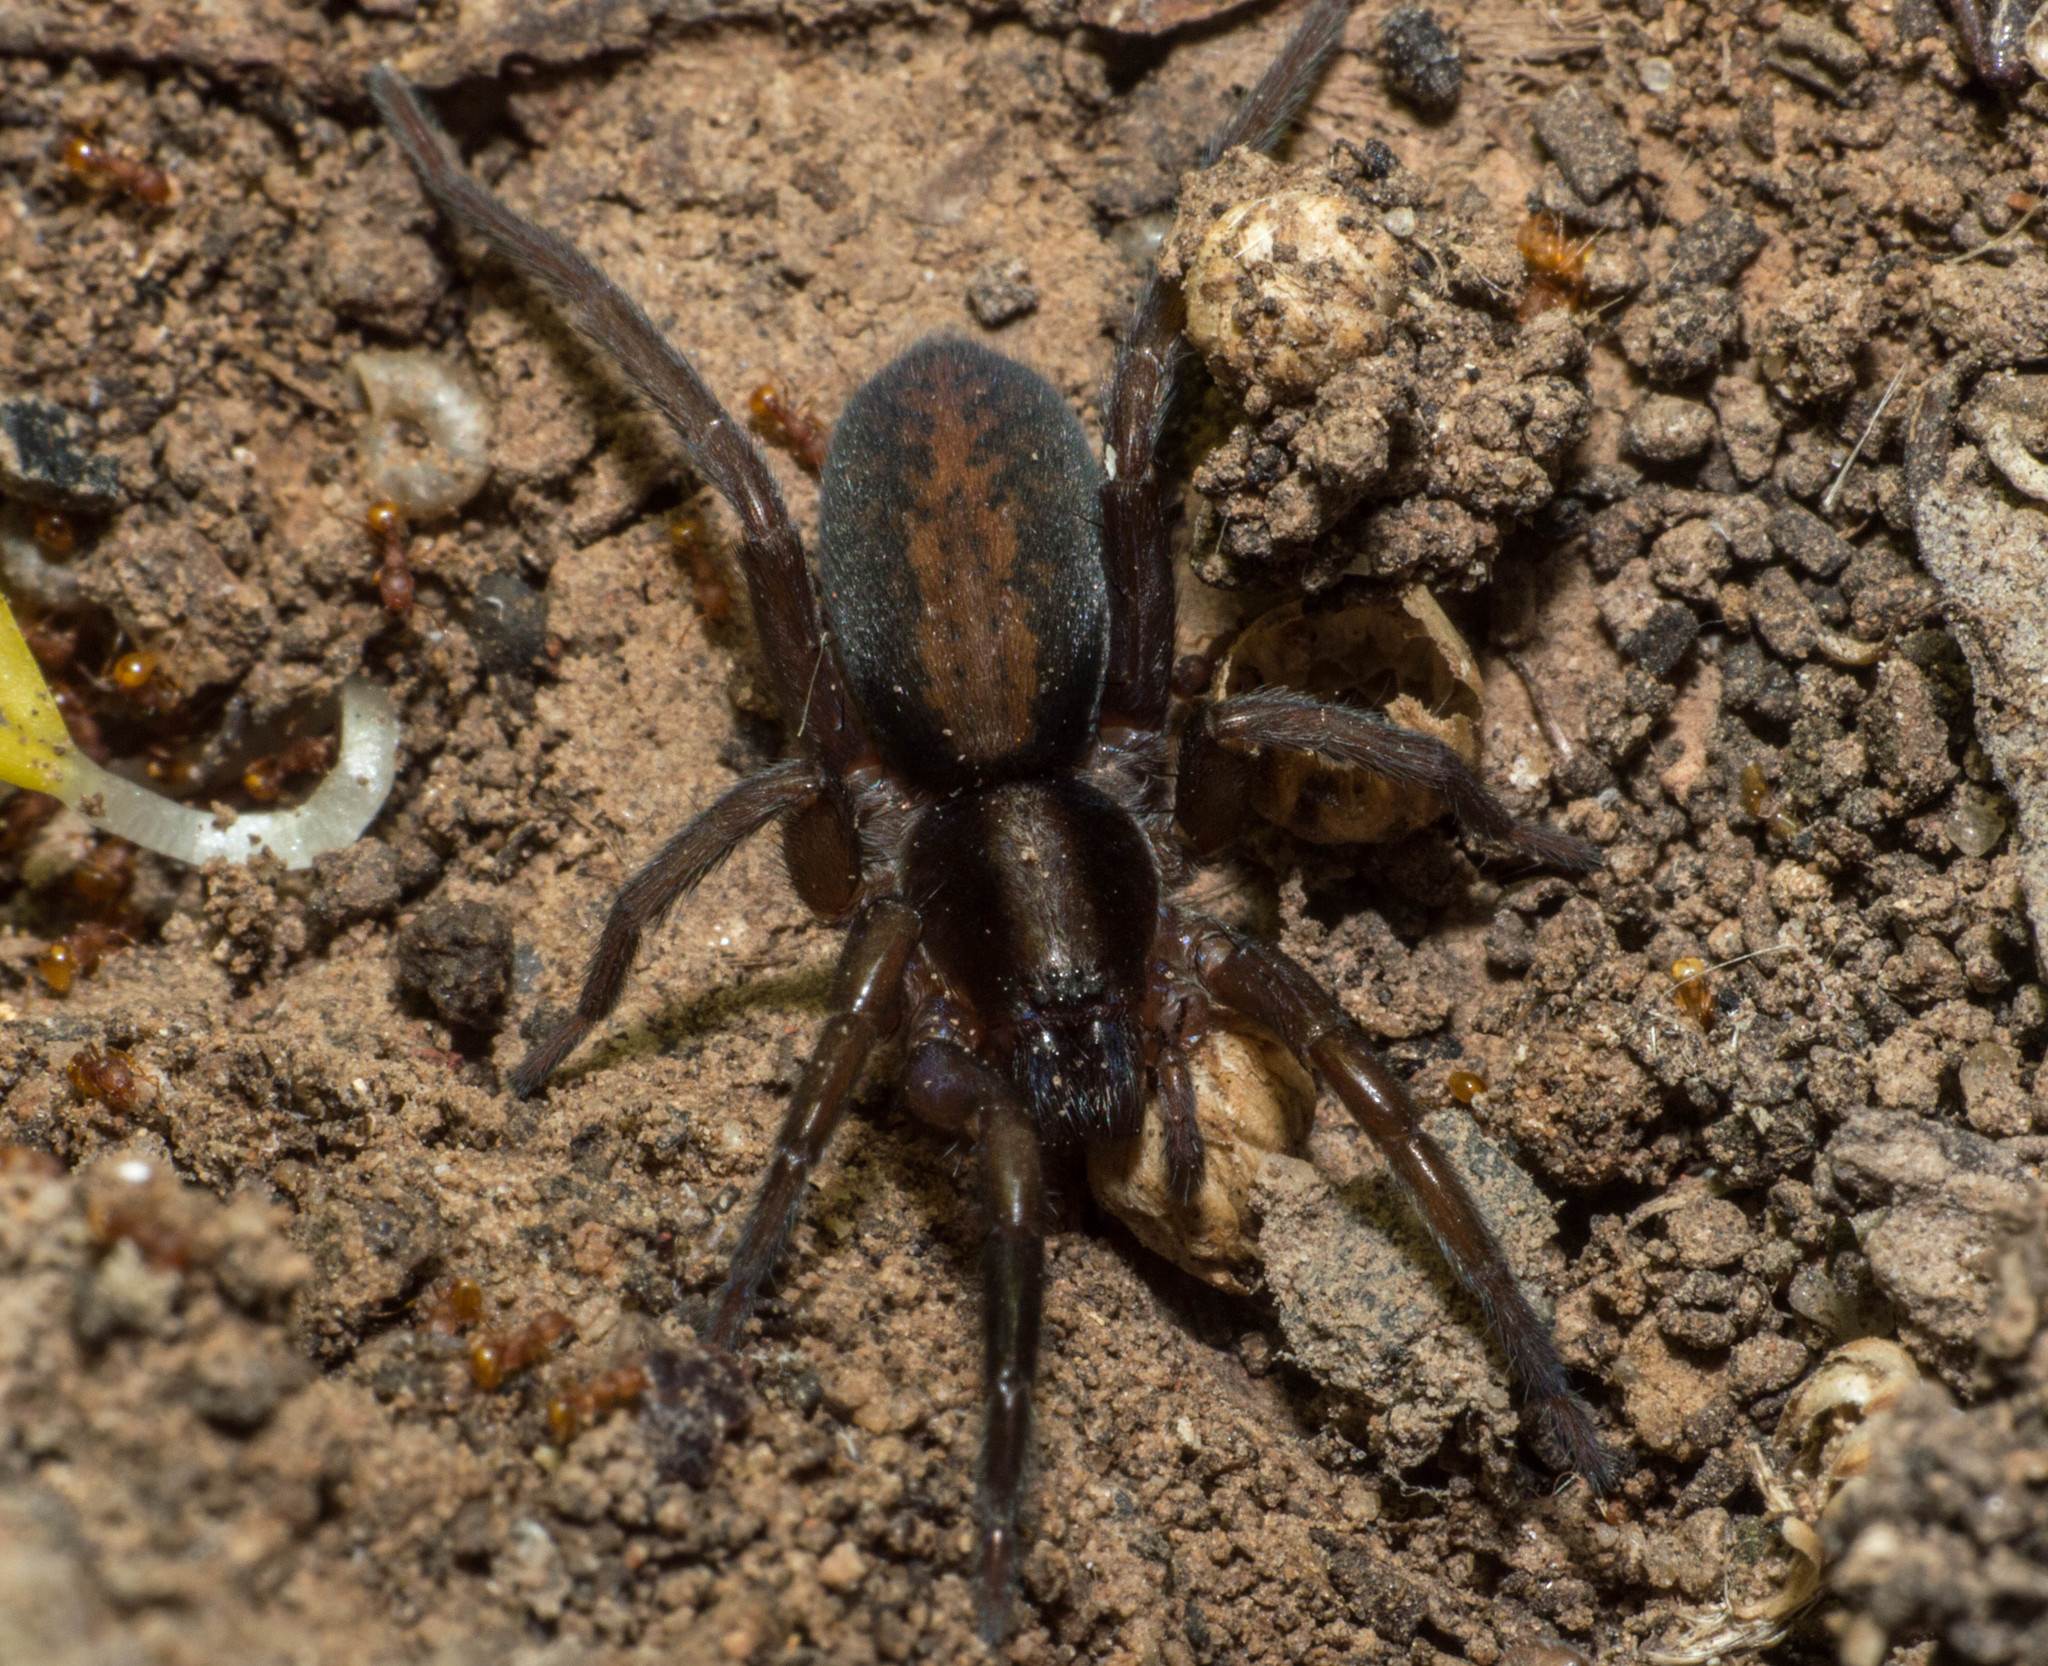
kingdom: Animalia
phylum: Arthropoda
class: Arachnida
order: Araneae
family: Miturgidae
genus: Teminius
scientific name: Teminius insularis
